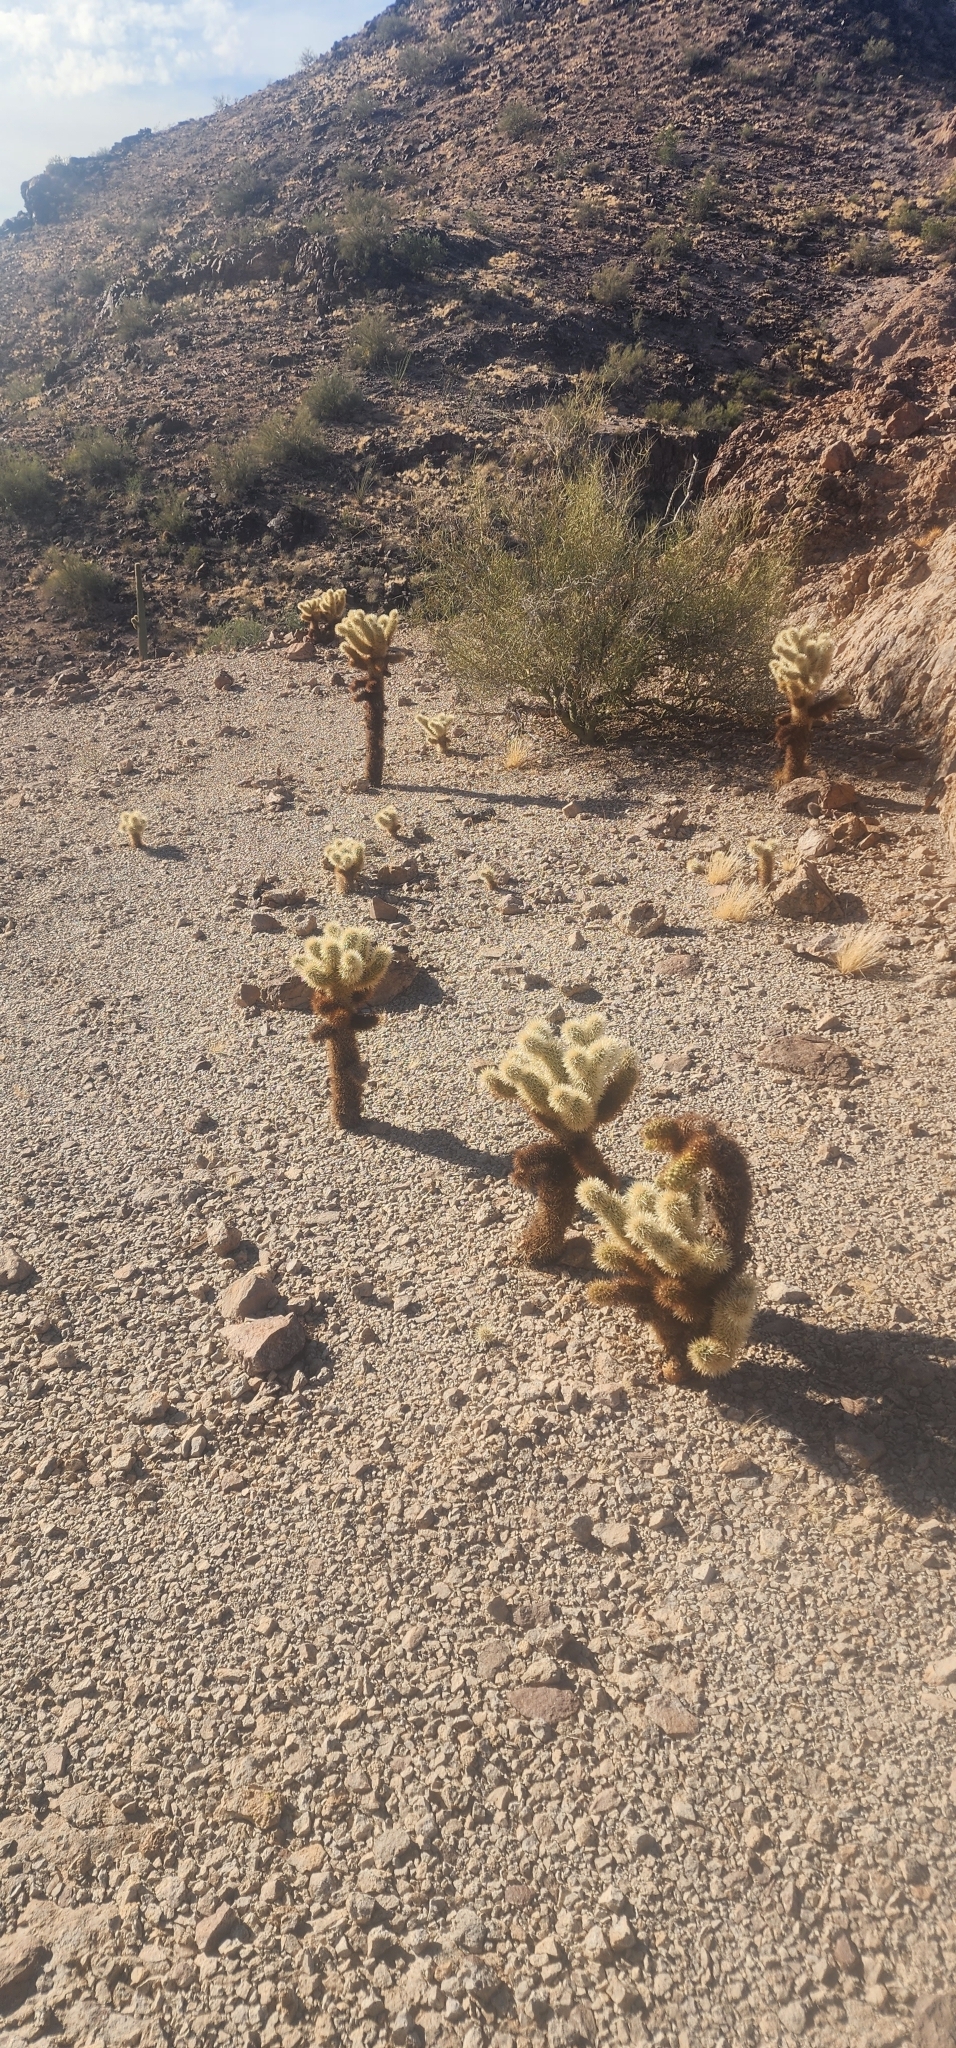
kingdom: Plantae
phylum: Tracheophyta
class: Magnoliopsida
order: Caryophyllales
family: Cactaceae
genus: Cylindropuntia
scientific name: Cylindropuntia fosbergii
